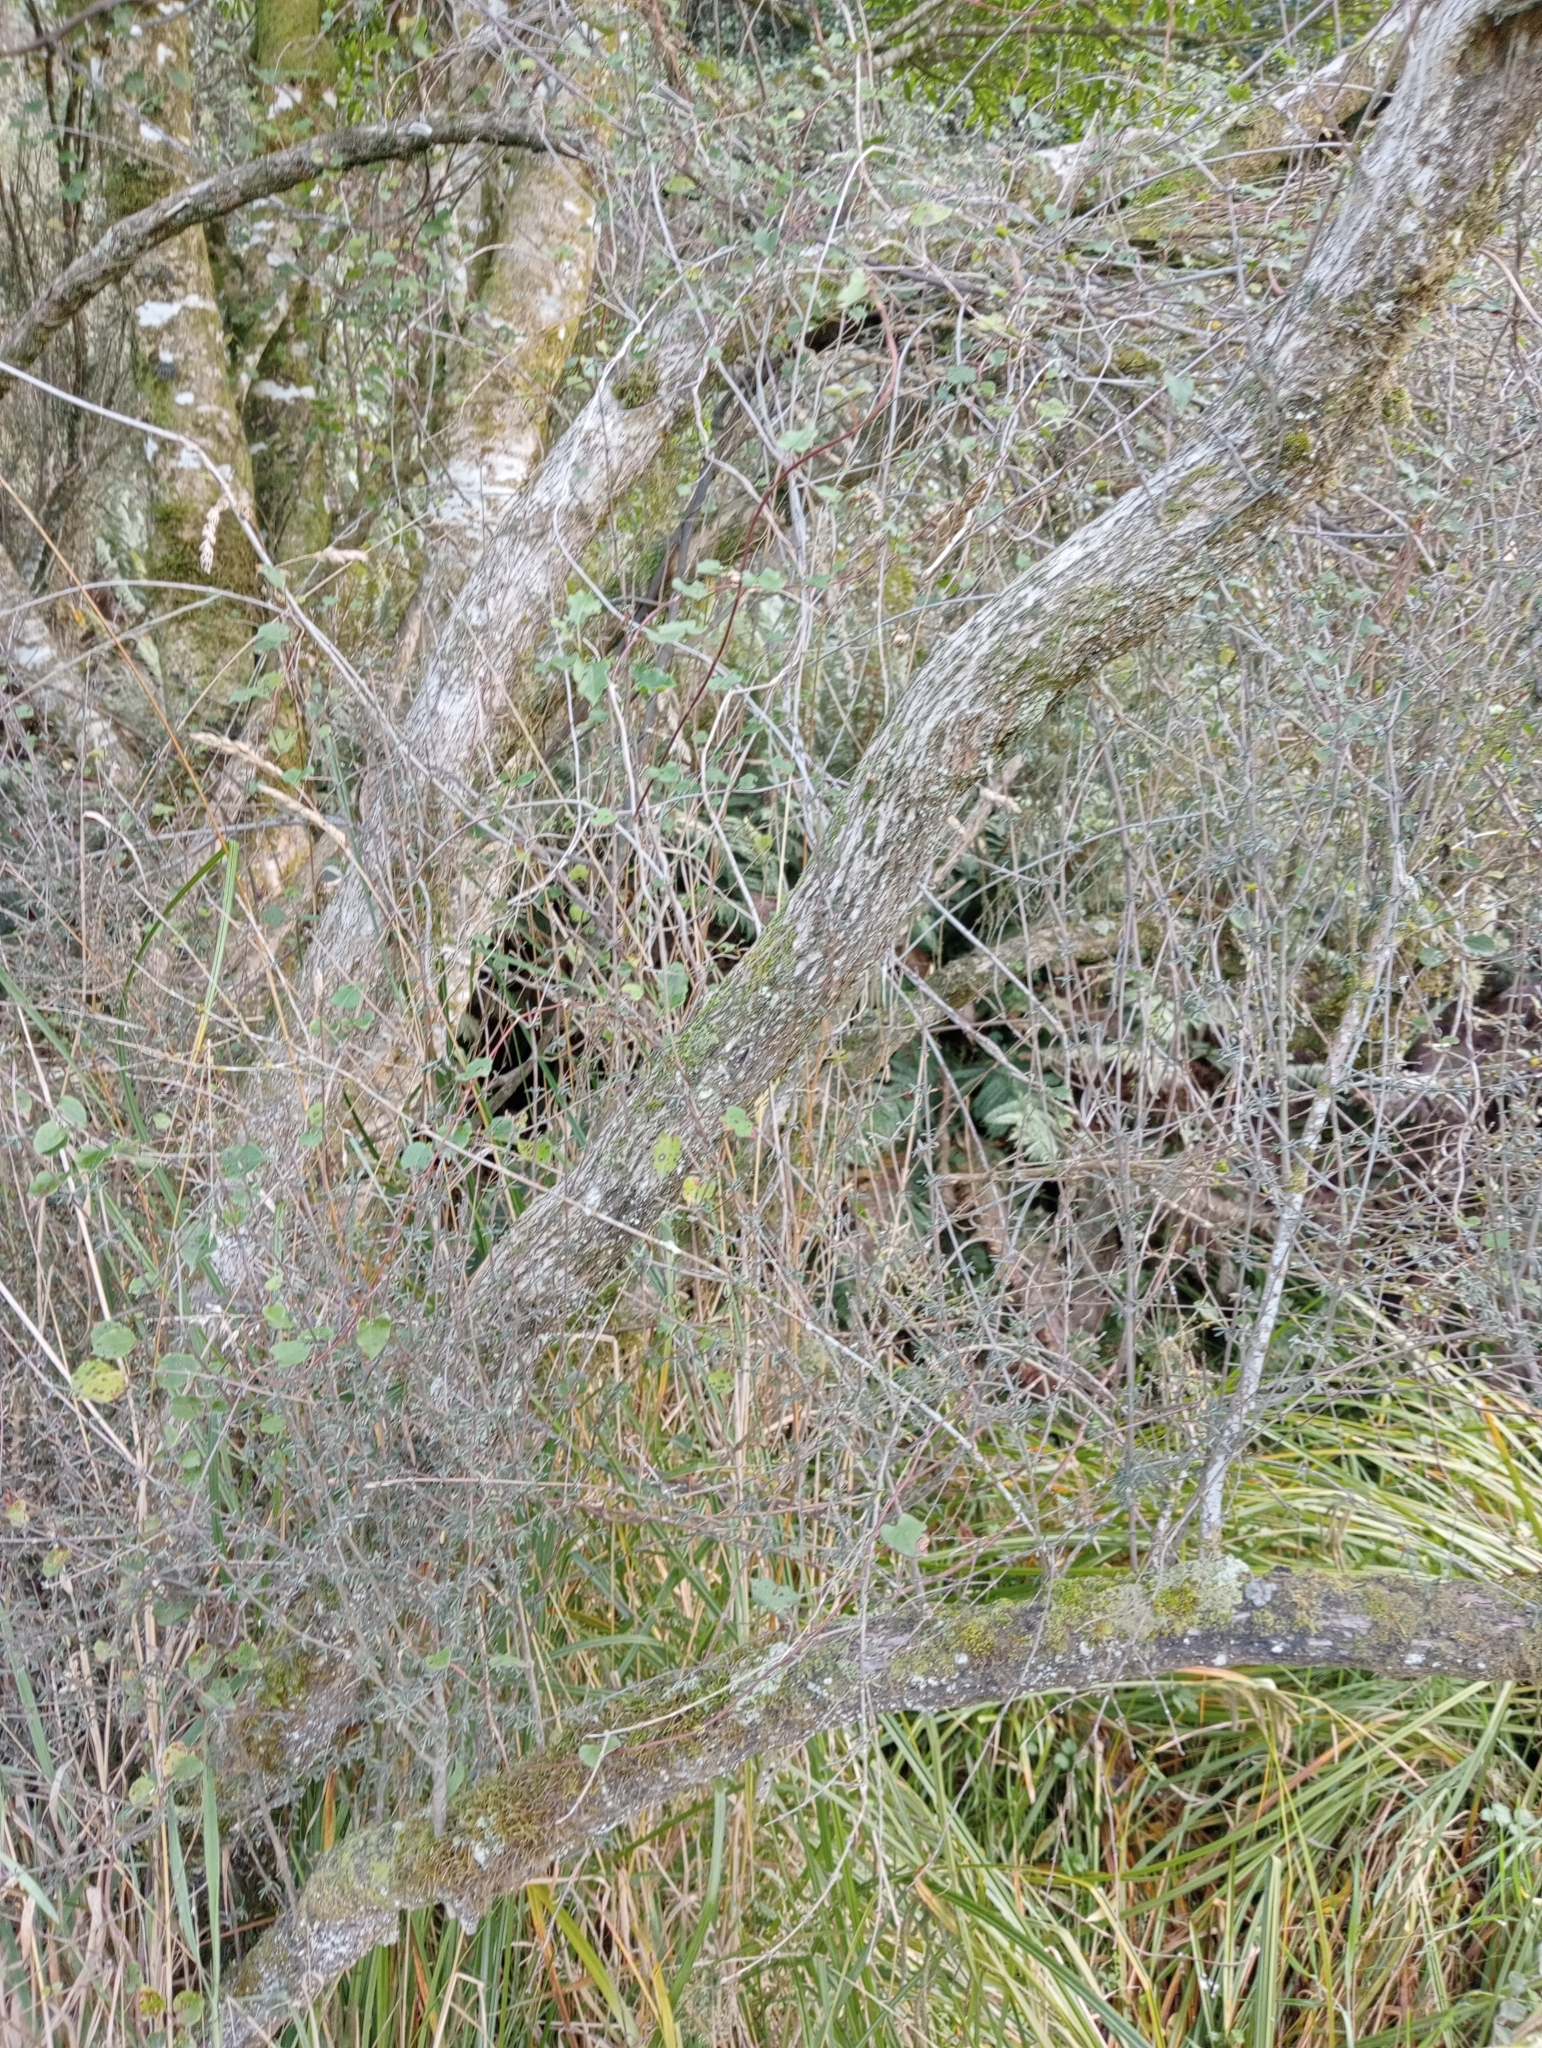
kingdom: Plantae
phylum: Tracheophyta
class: Magnoliopsida
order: Asterales
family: Asteraceae
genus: Olearia
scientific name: Olearia bullata
